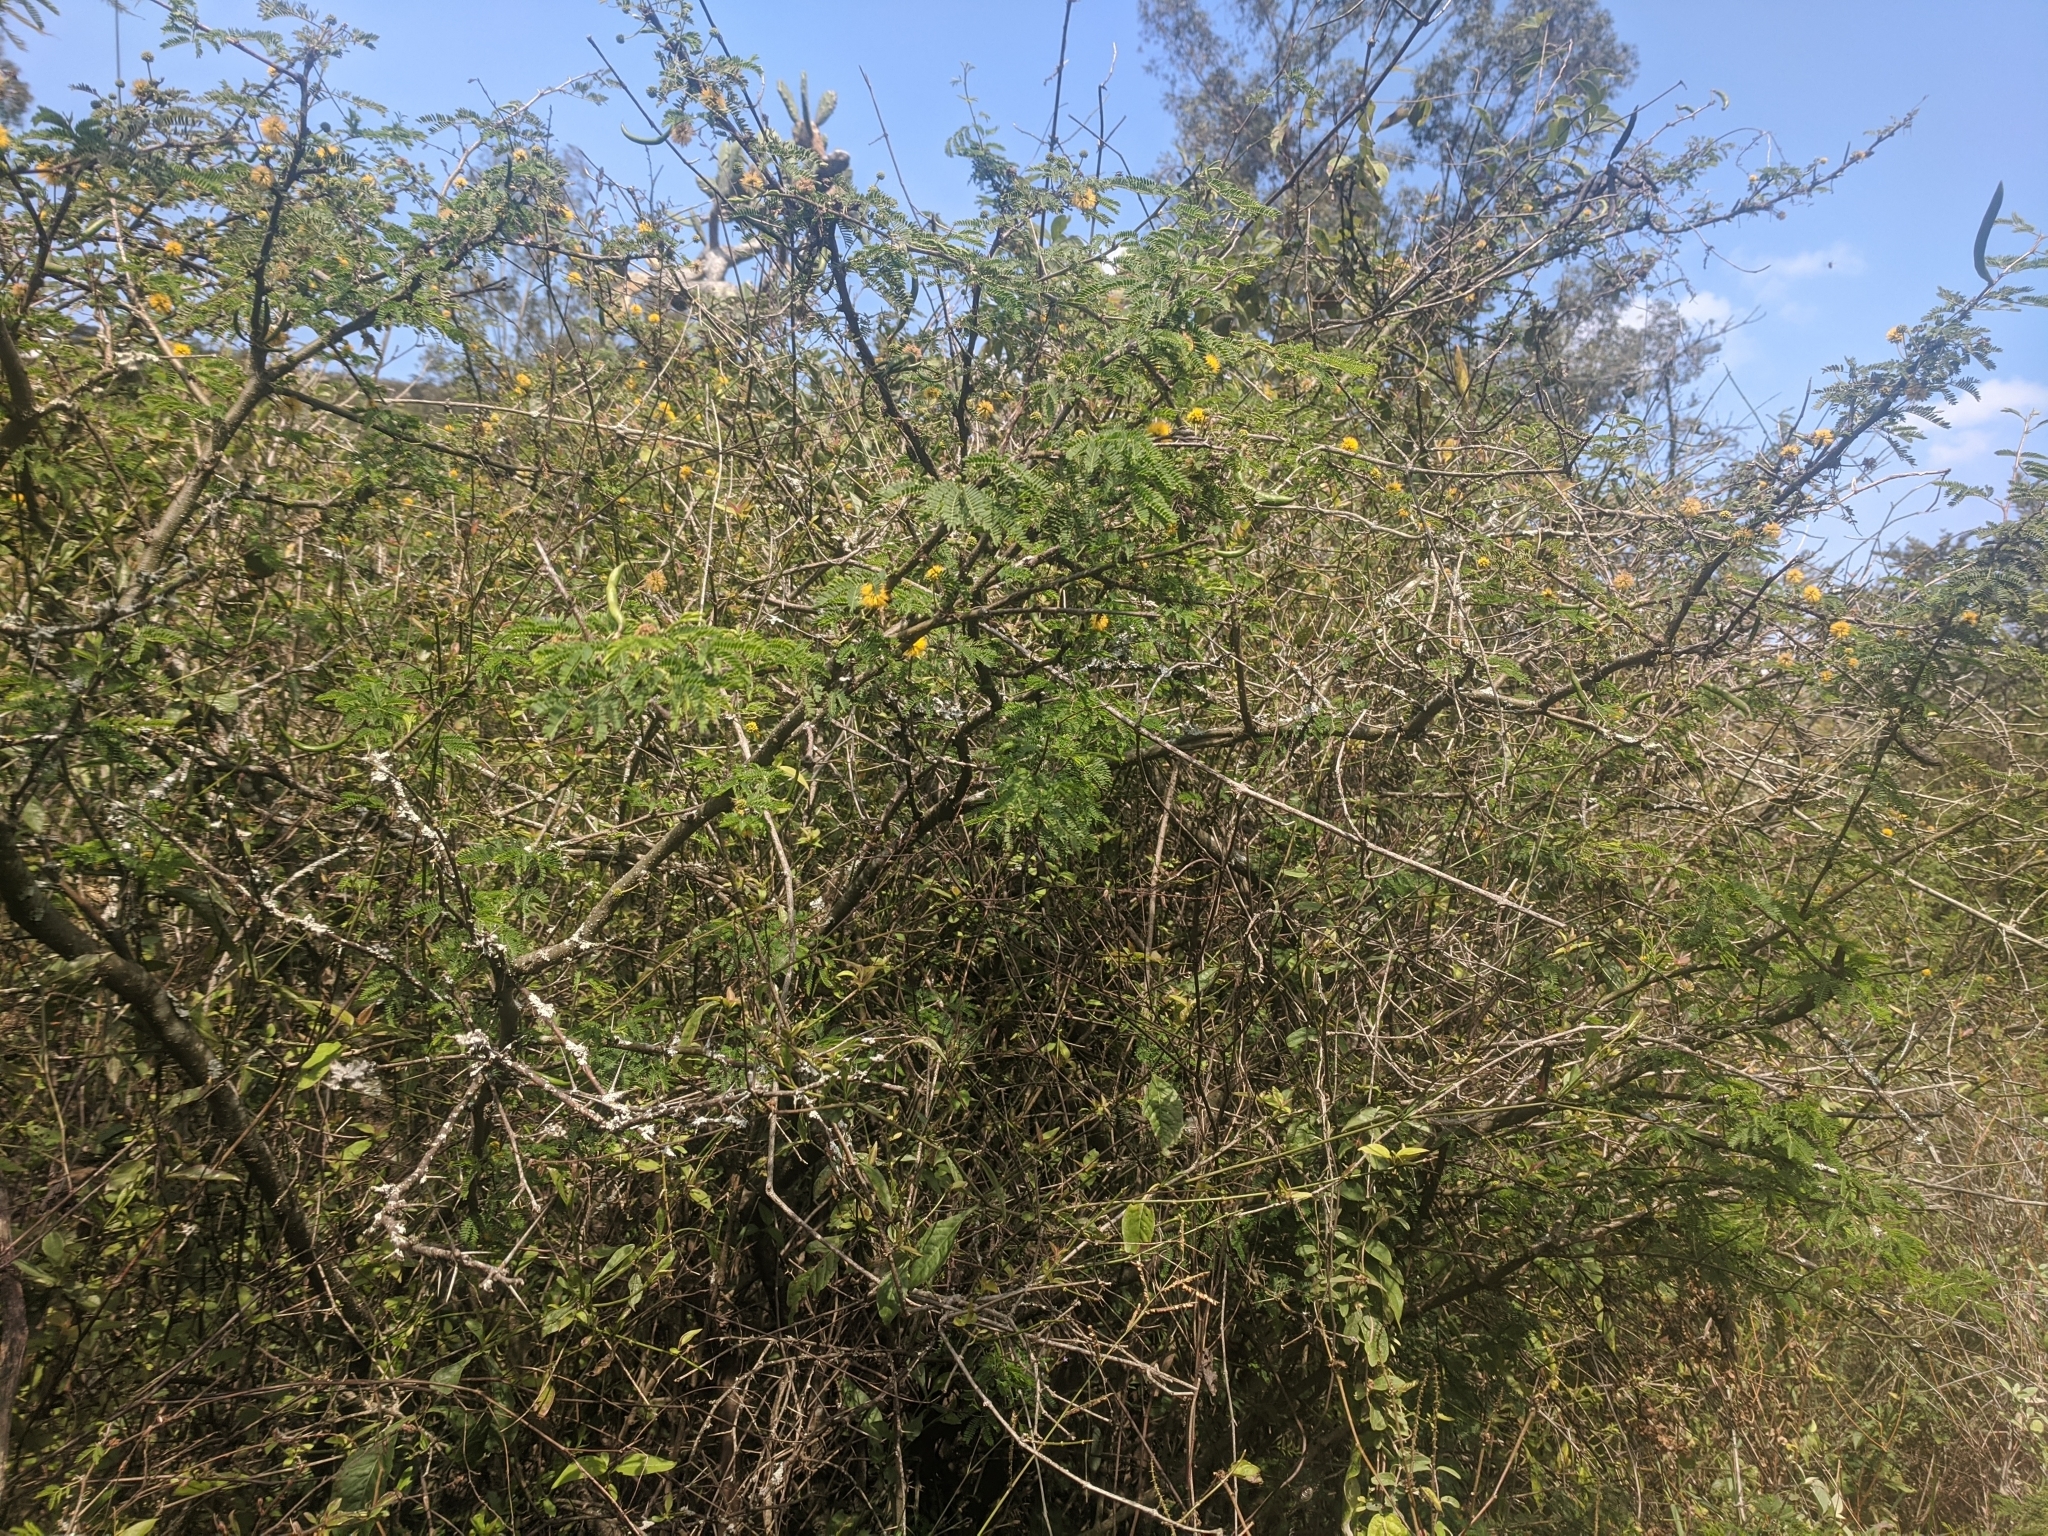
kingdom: Plantae
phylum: Tracheophyta
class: Magnoliopsida
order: Fabales
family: Fabaceae
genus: Vachellia
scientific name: Vachellia farnesiana
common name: Sweet acacia
